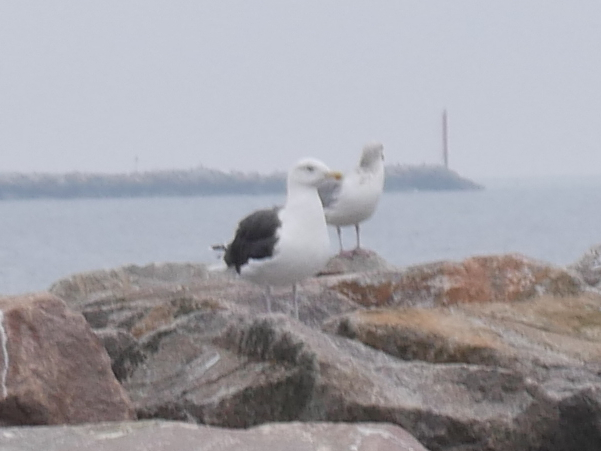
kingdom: Animalia
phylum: Chordata
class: Aves
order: Charadriiformes
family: Laridae
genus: Larus
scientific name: Larus marinus
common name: Great black-backed gull
